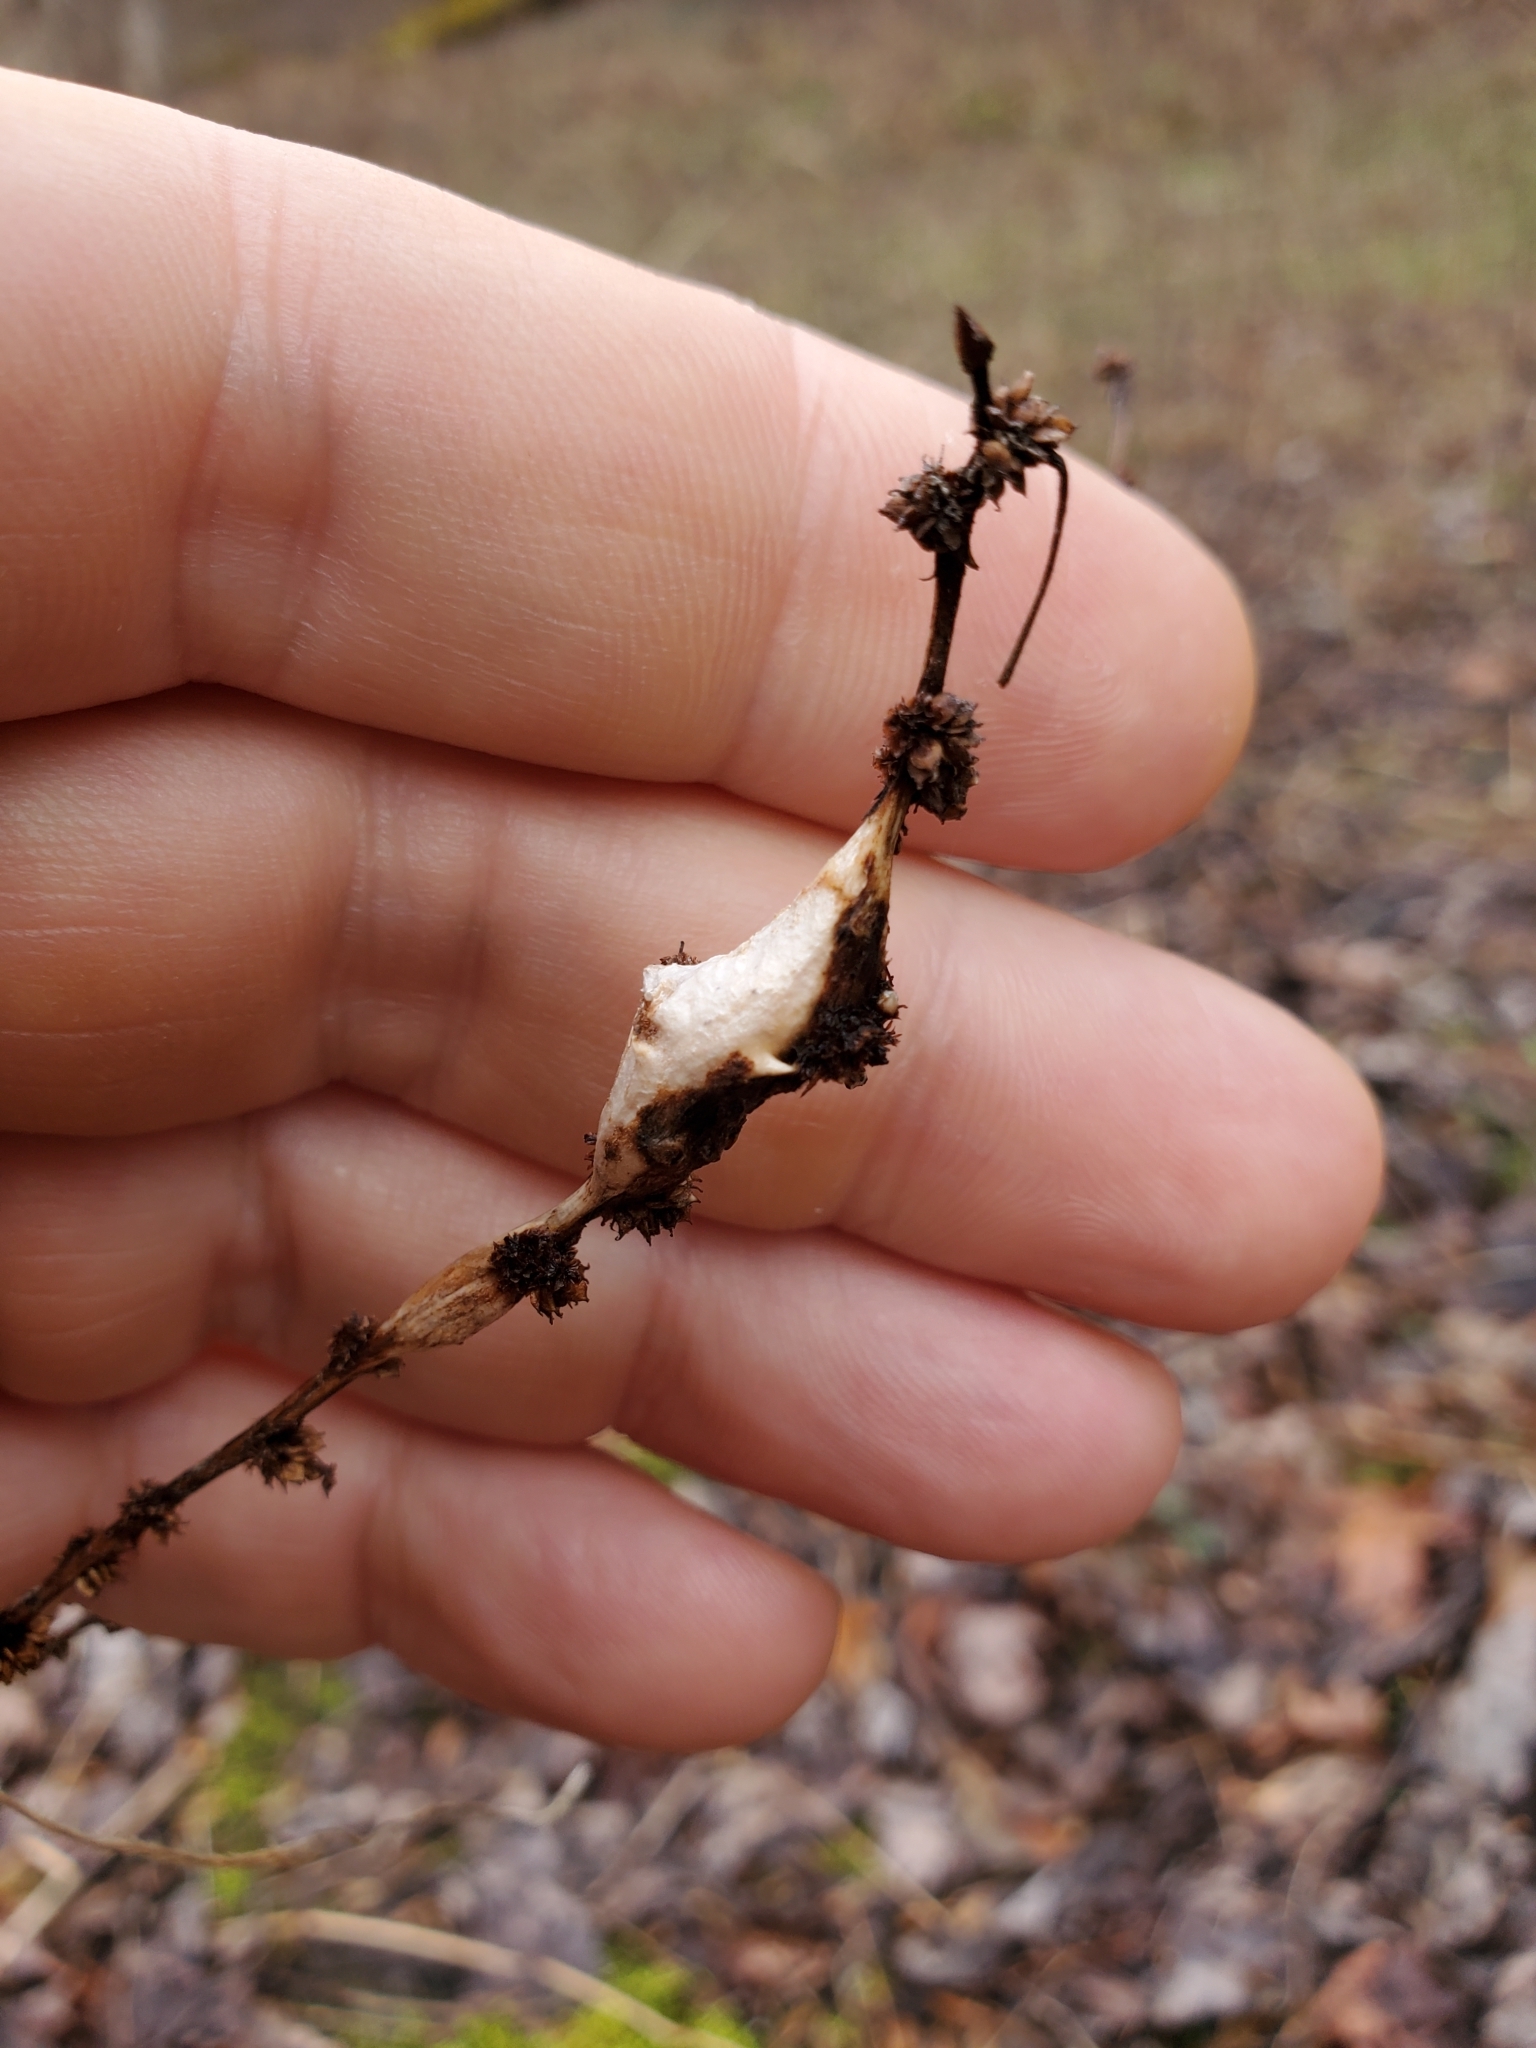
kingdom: Animalia
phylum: Arthropoda
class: Insecta
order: Diptera
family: Cecidomyiidae
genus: Neolasioptera
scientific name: Neolasioptera boehmeriae
